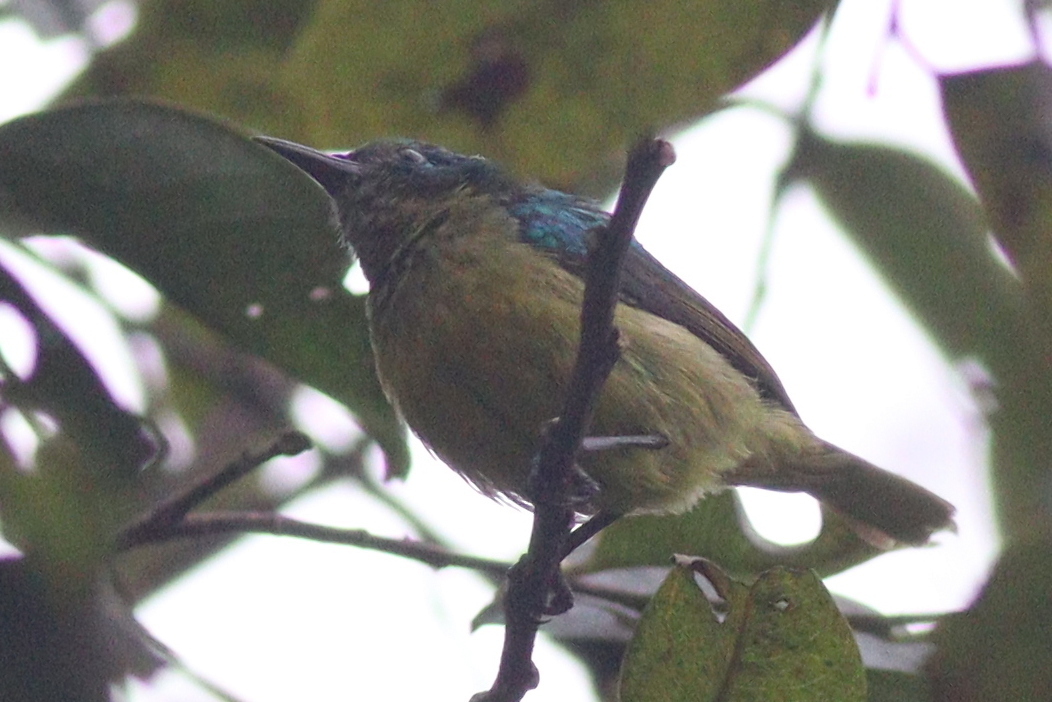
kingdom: Animalia
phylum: Chordata
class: Aves
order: Passeriformes
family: Nectariniidae
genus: Hedydipna
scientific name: Hedydipna collaris
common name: Collared sunbird
